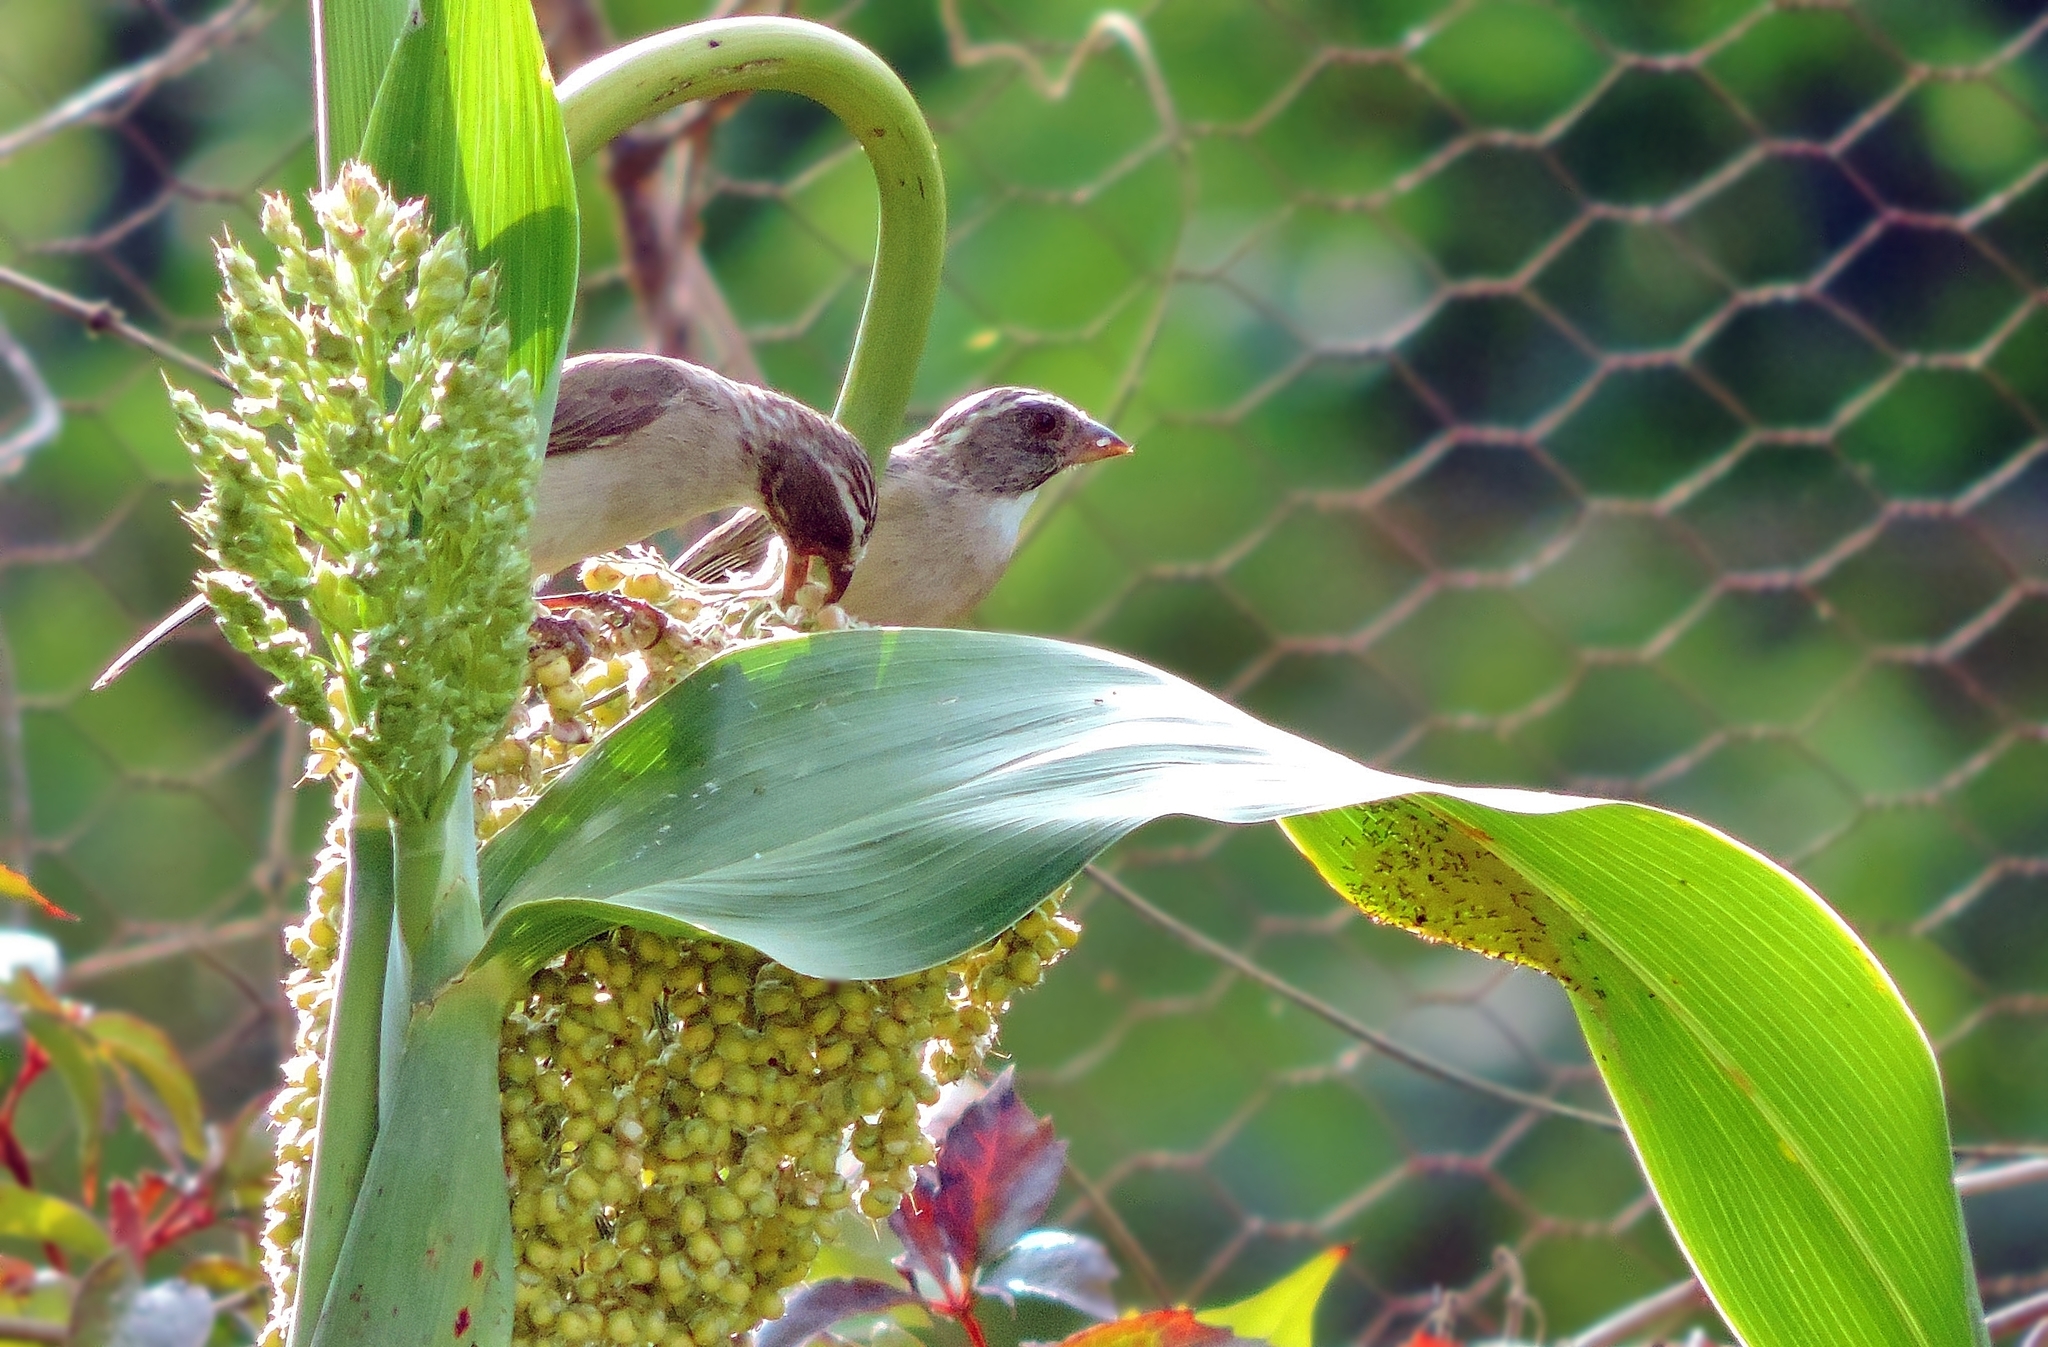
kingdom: Plantae
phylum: Tracheophyta
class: Liliopsida
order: Poales
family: Poaceae
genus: Sorghum
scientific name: Sorghum bicolor
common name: Sorghum
